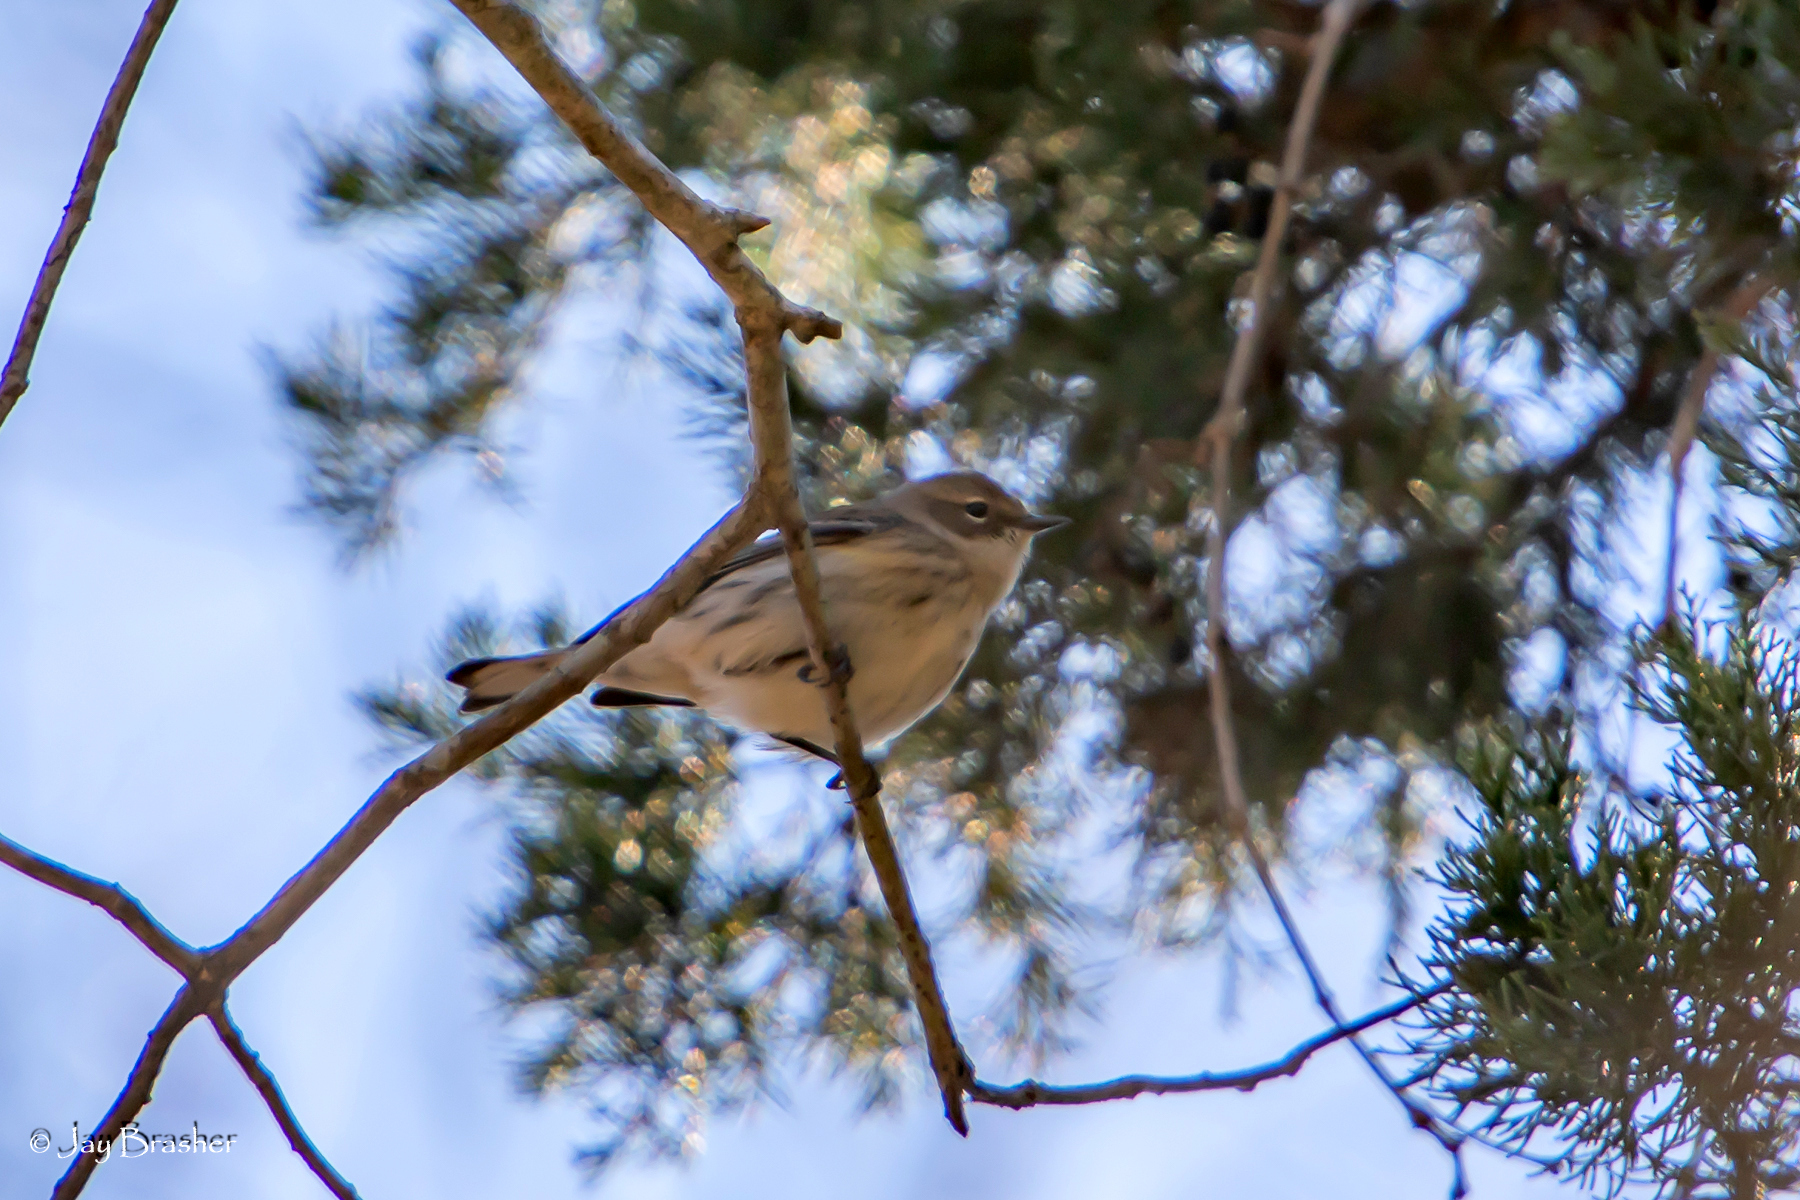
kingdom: Animalia
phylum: Chordata
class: Aves
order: Passeriformes
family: Parulidae
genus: Setophaga
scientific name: Setophaga coronata
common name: Myrtle warbler
